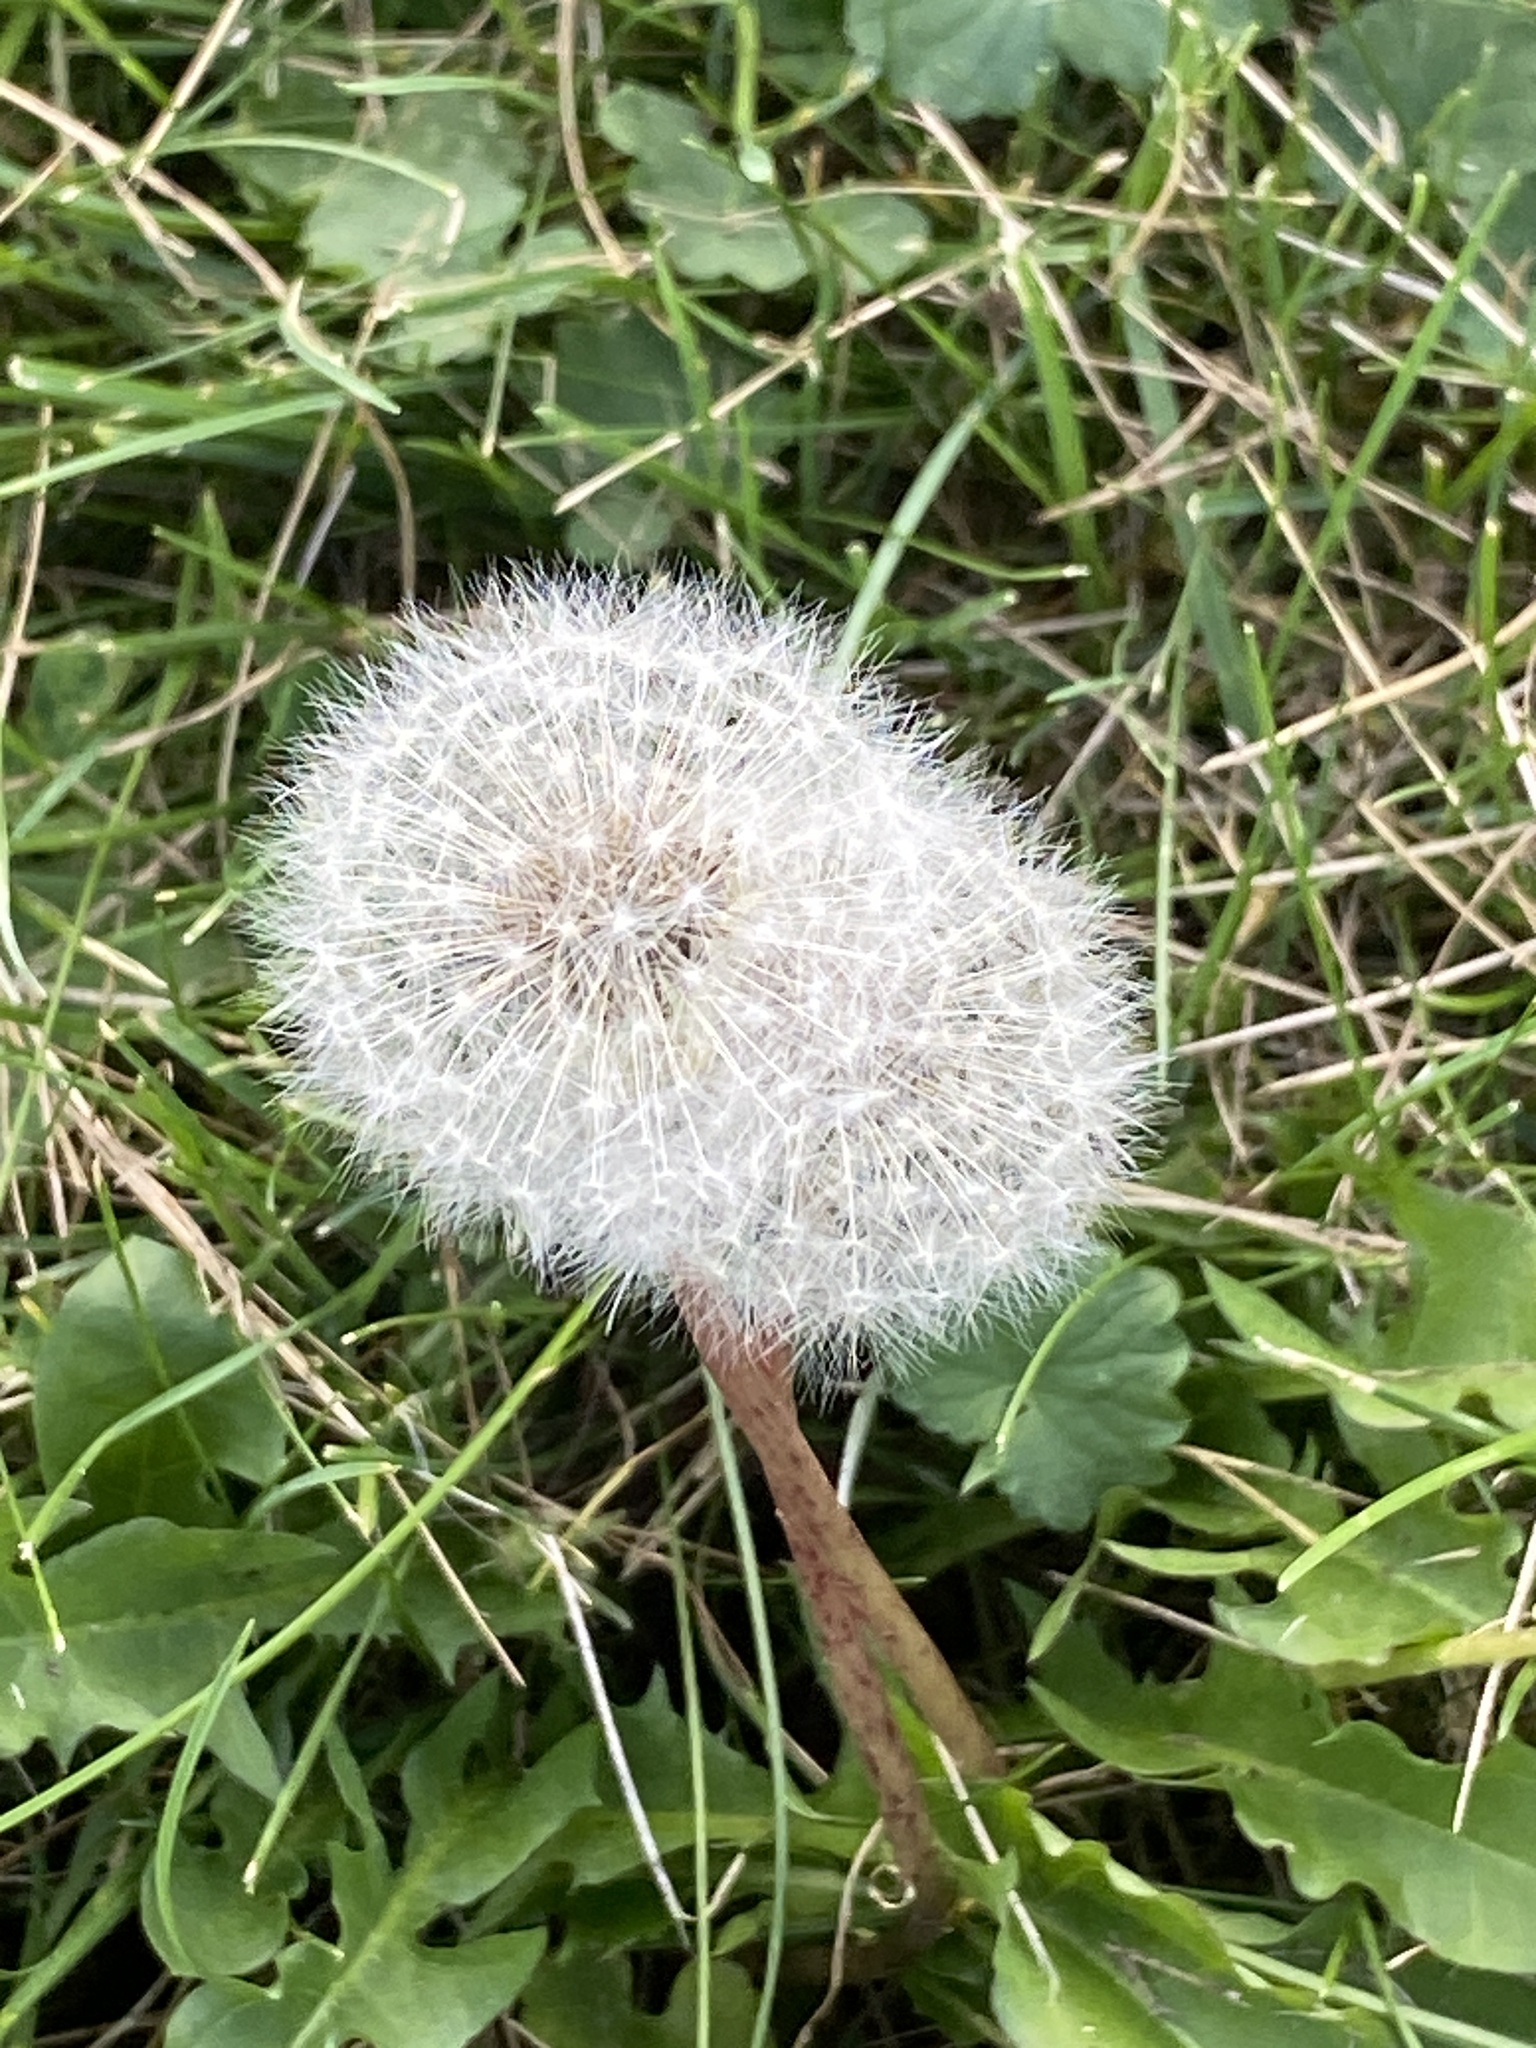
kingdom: Plantae
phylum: Tracheophyta
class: Magnoliopsida
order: Asterales
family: Asteraceae
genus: Taraxacum
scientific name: Taraxacum officinale
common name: Common dandelion
